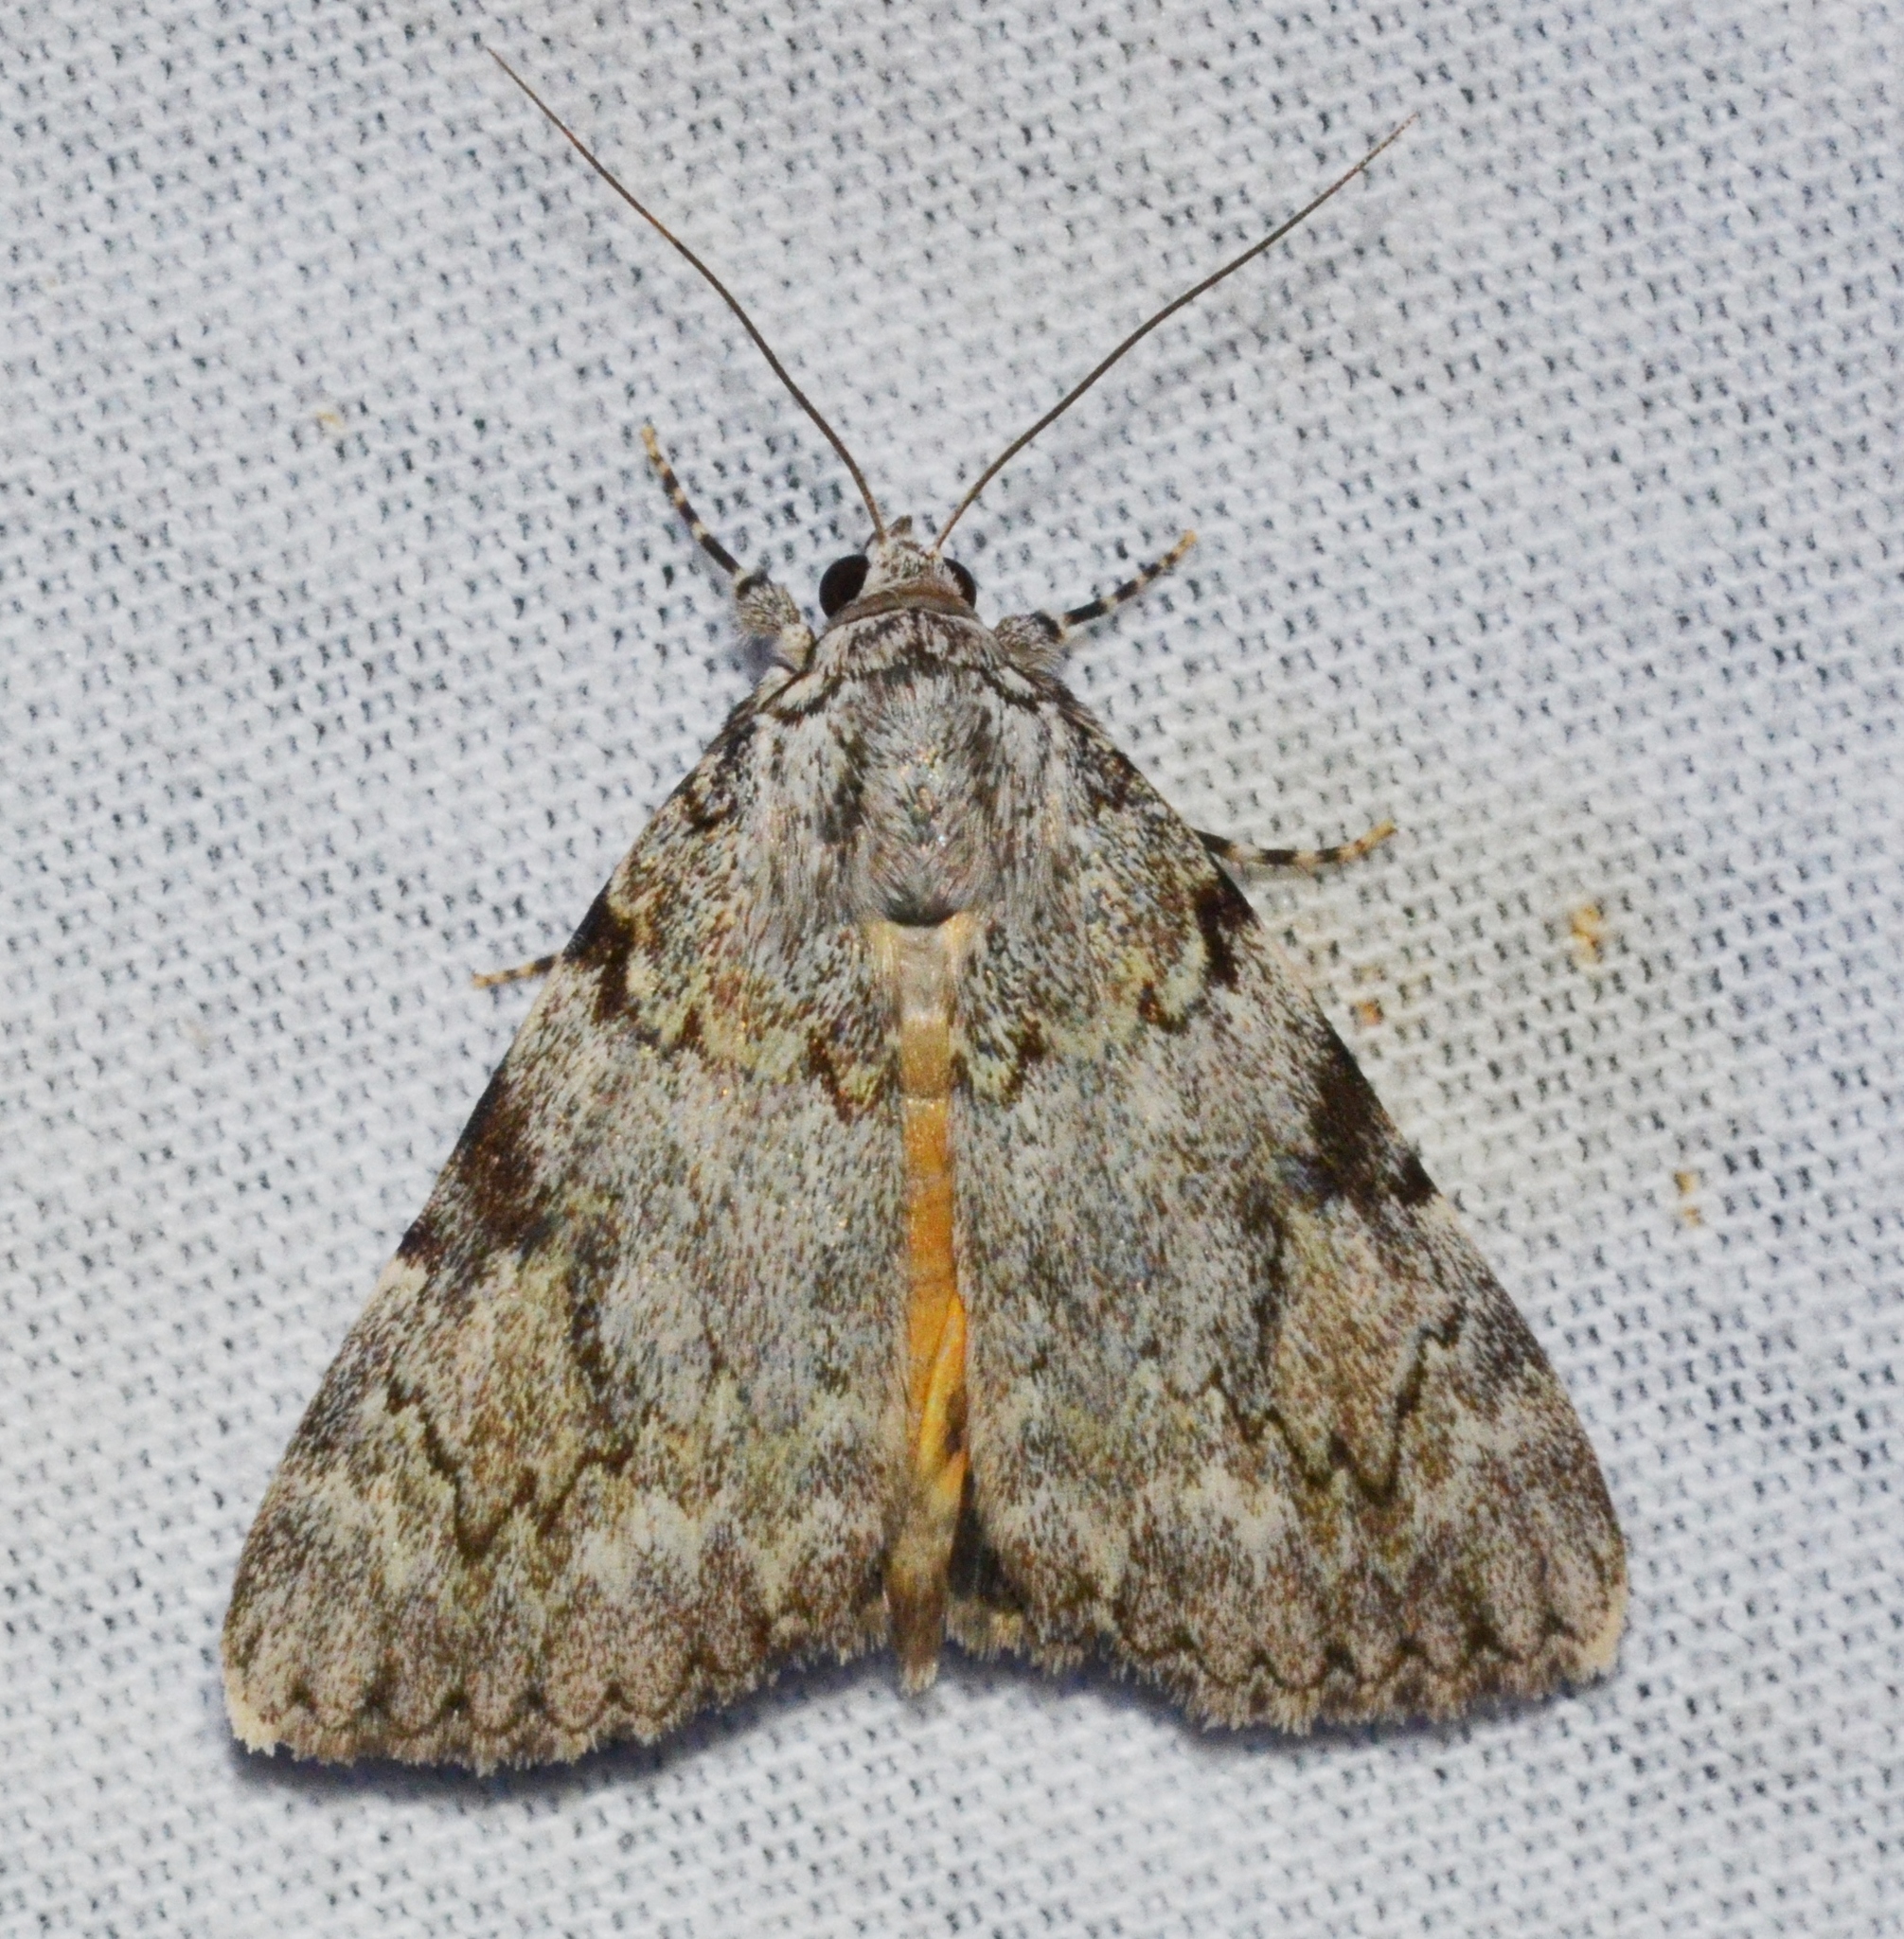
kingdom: Animalia
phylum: Arthropoda
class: Insecta
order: Lepidoptera
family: Erebidae
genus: Catocala
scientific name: Catocala amica
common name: Girlfriend underwing
